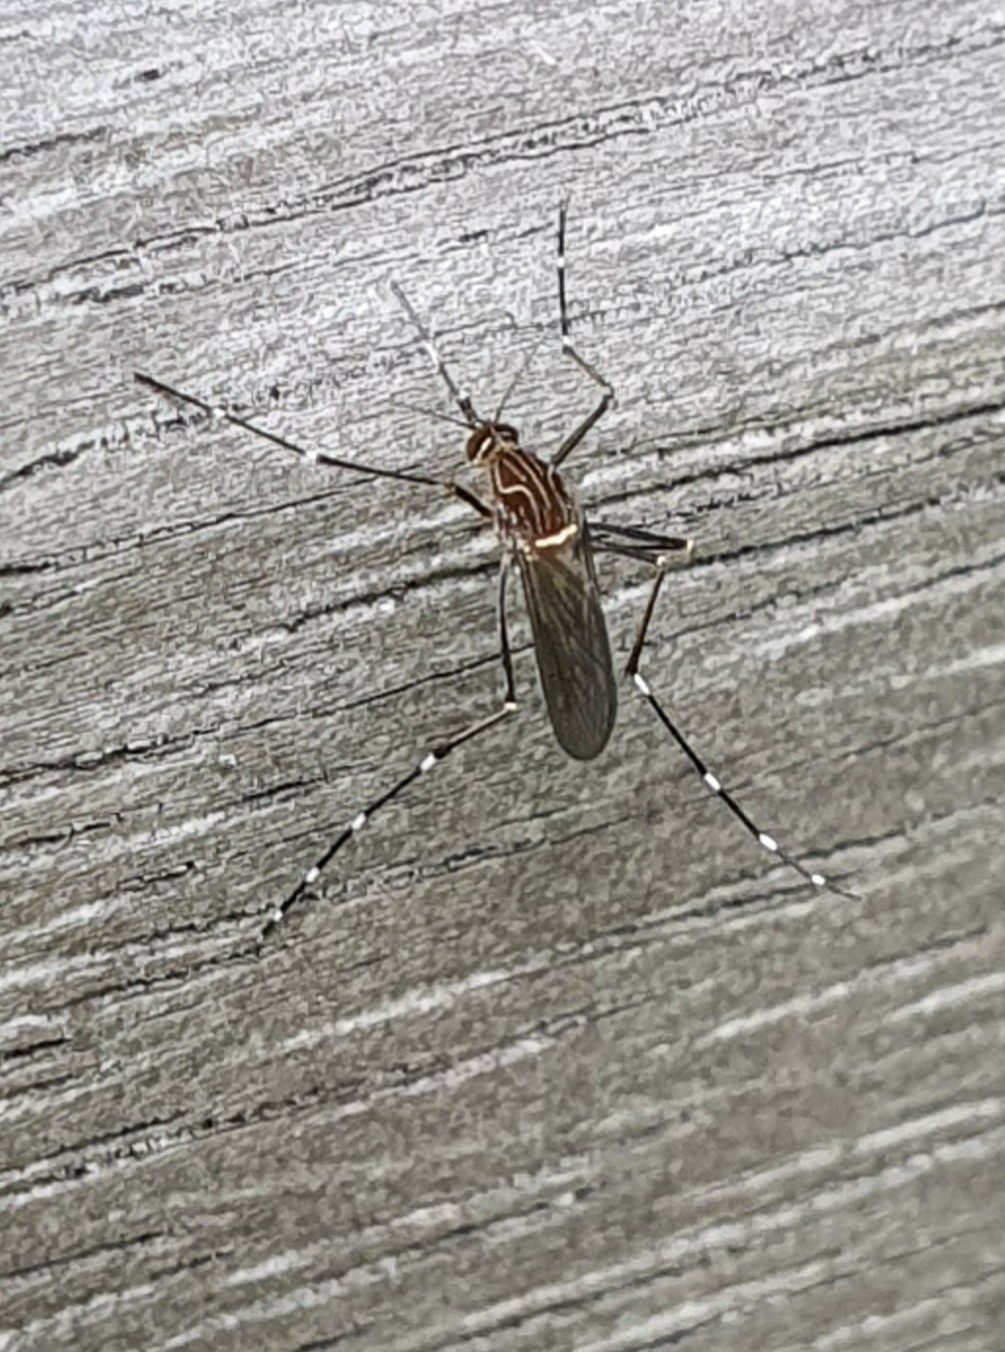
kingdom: Animalia
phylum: Arthropoda
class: Insecta
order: Diptera
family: Culicidae
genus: Aedes
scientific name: Aedes notoscriptus
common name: Australian backyard mosquito
